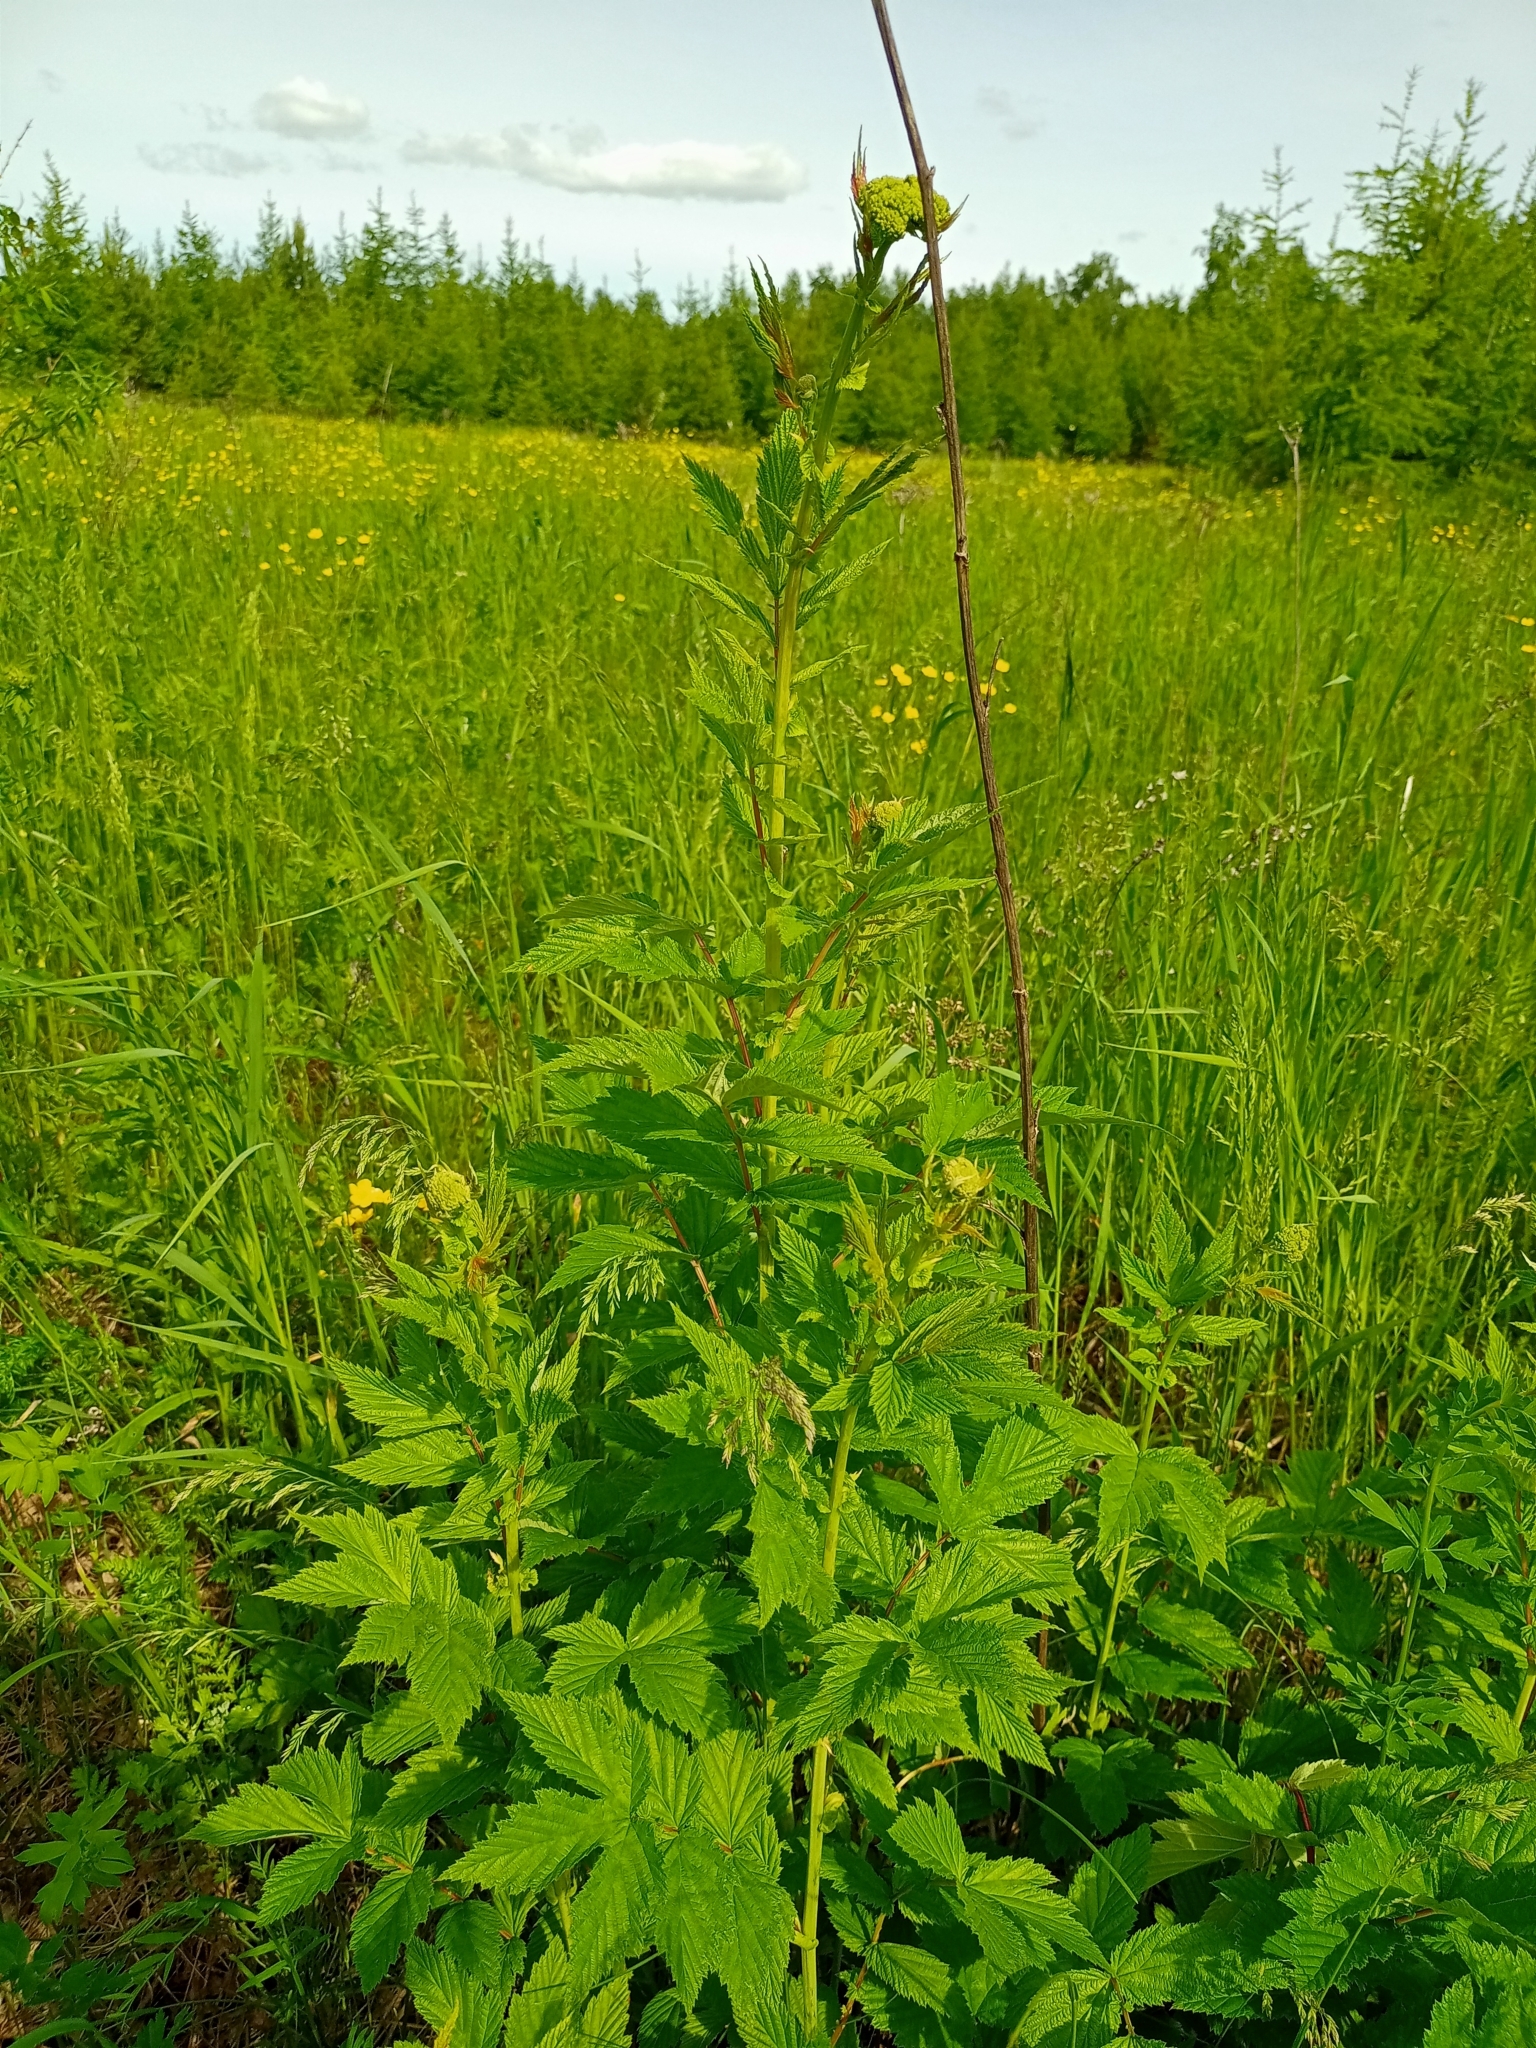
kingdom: Plantae
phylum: Tracheophyta
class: Magnoliopsida
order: Rosales
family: Rosaceae
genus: Filipendula
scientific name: Filipendula ulmaria
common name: Meadowsweet
